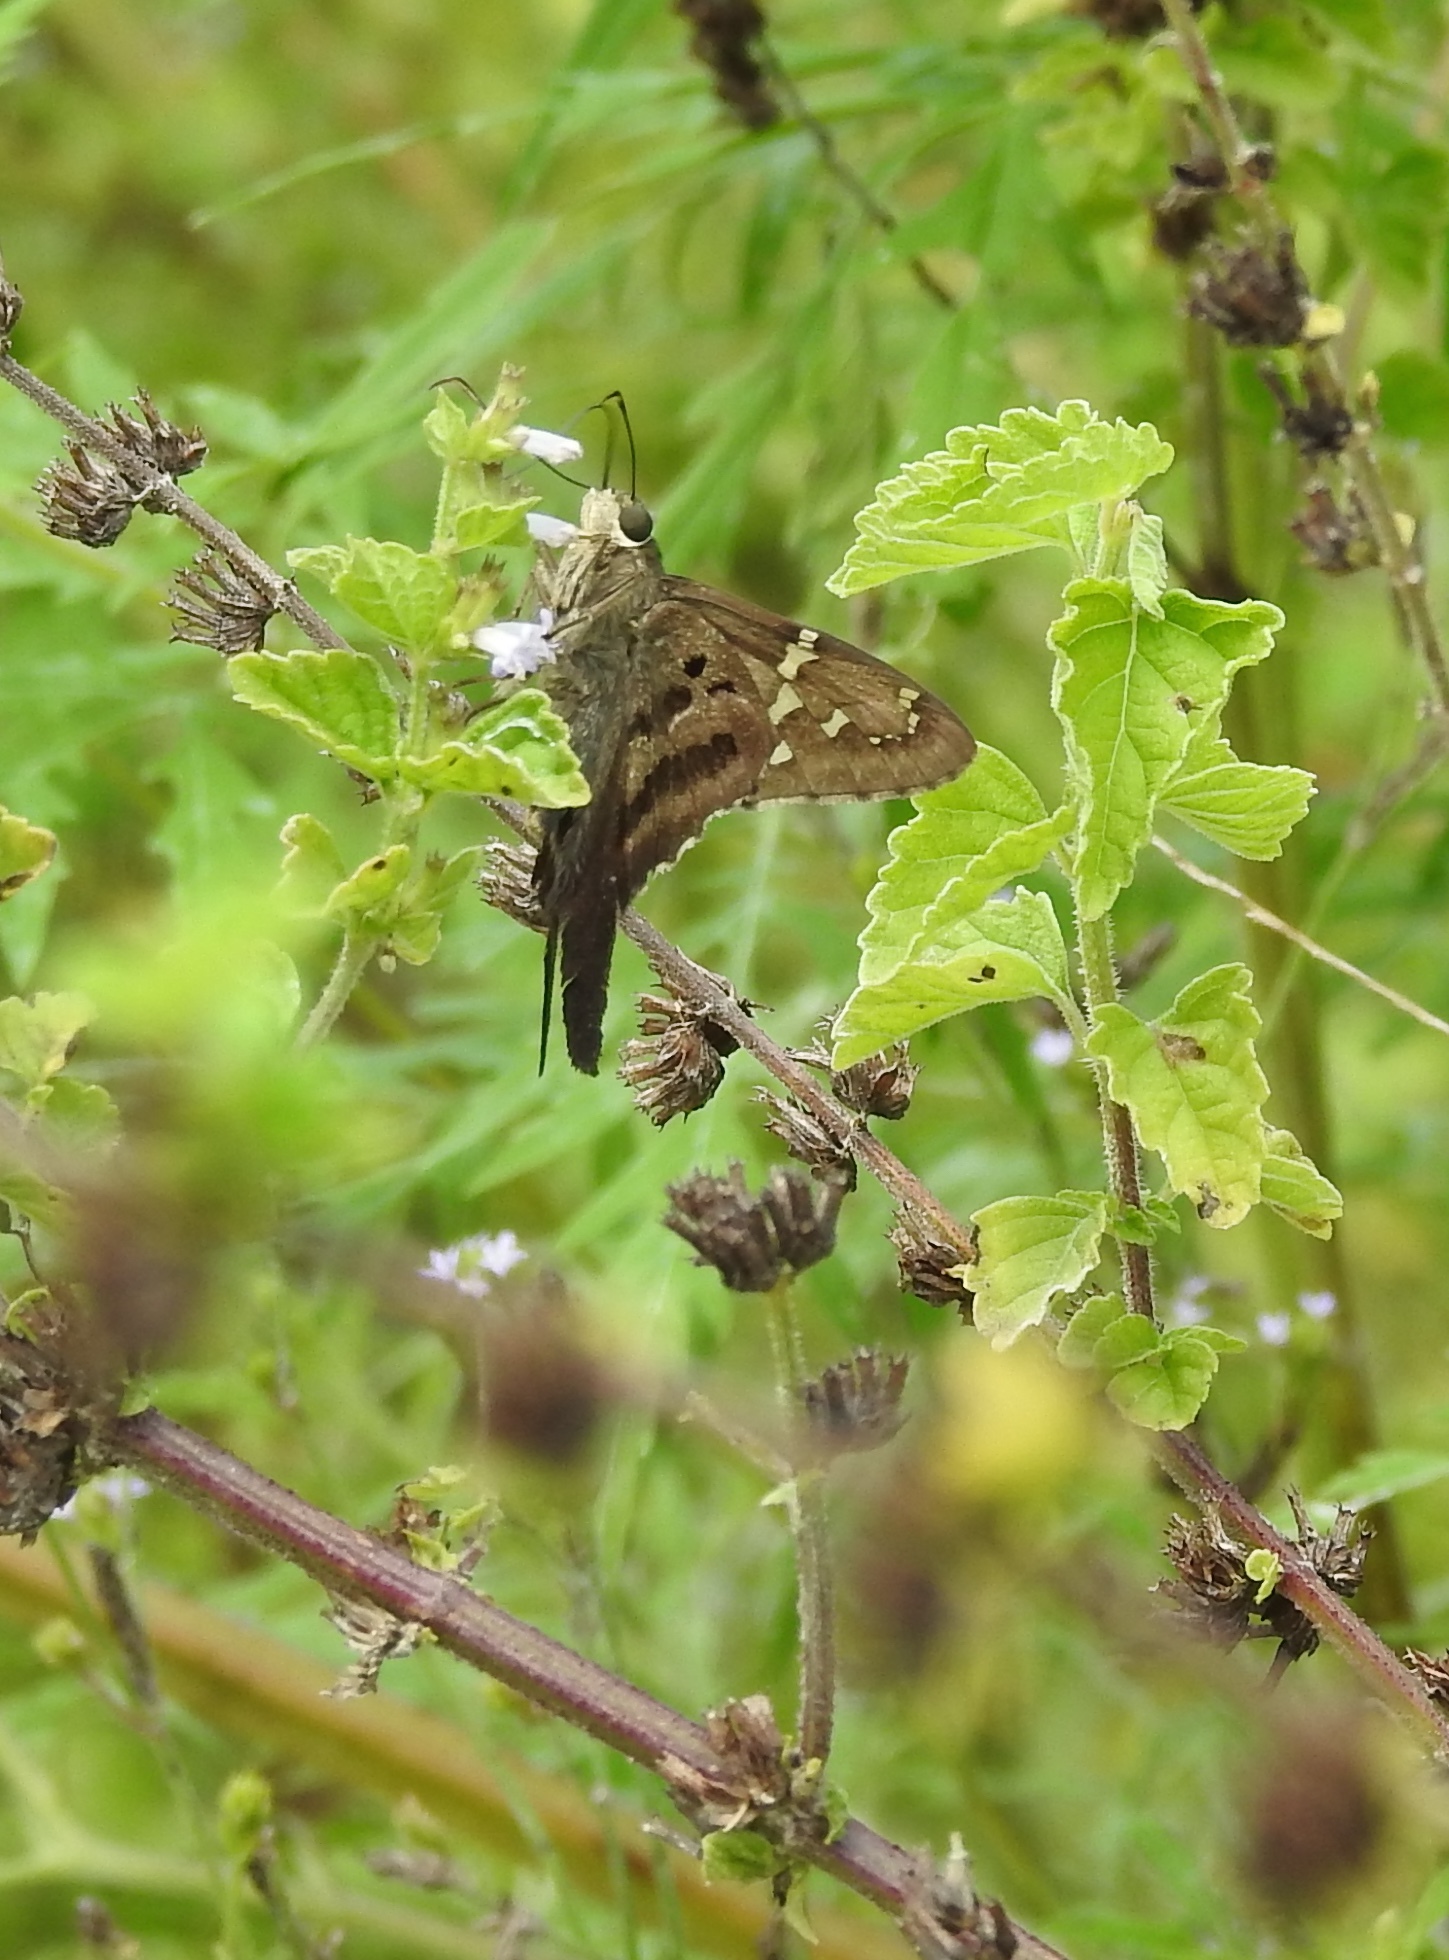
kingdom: Animalia
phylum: Arthropoda
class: Insecta
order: Lepidoptera
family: Hesperiidae
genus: Urbanus
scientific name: Urbanus proteus
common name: Long-tailed skipper
